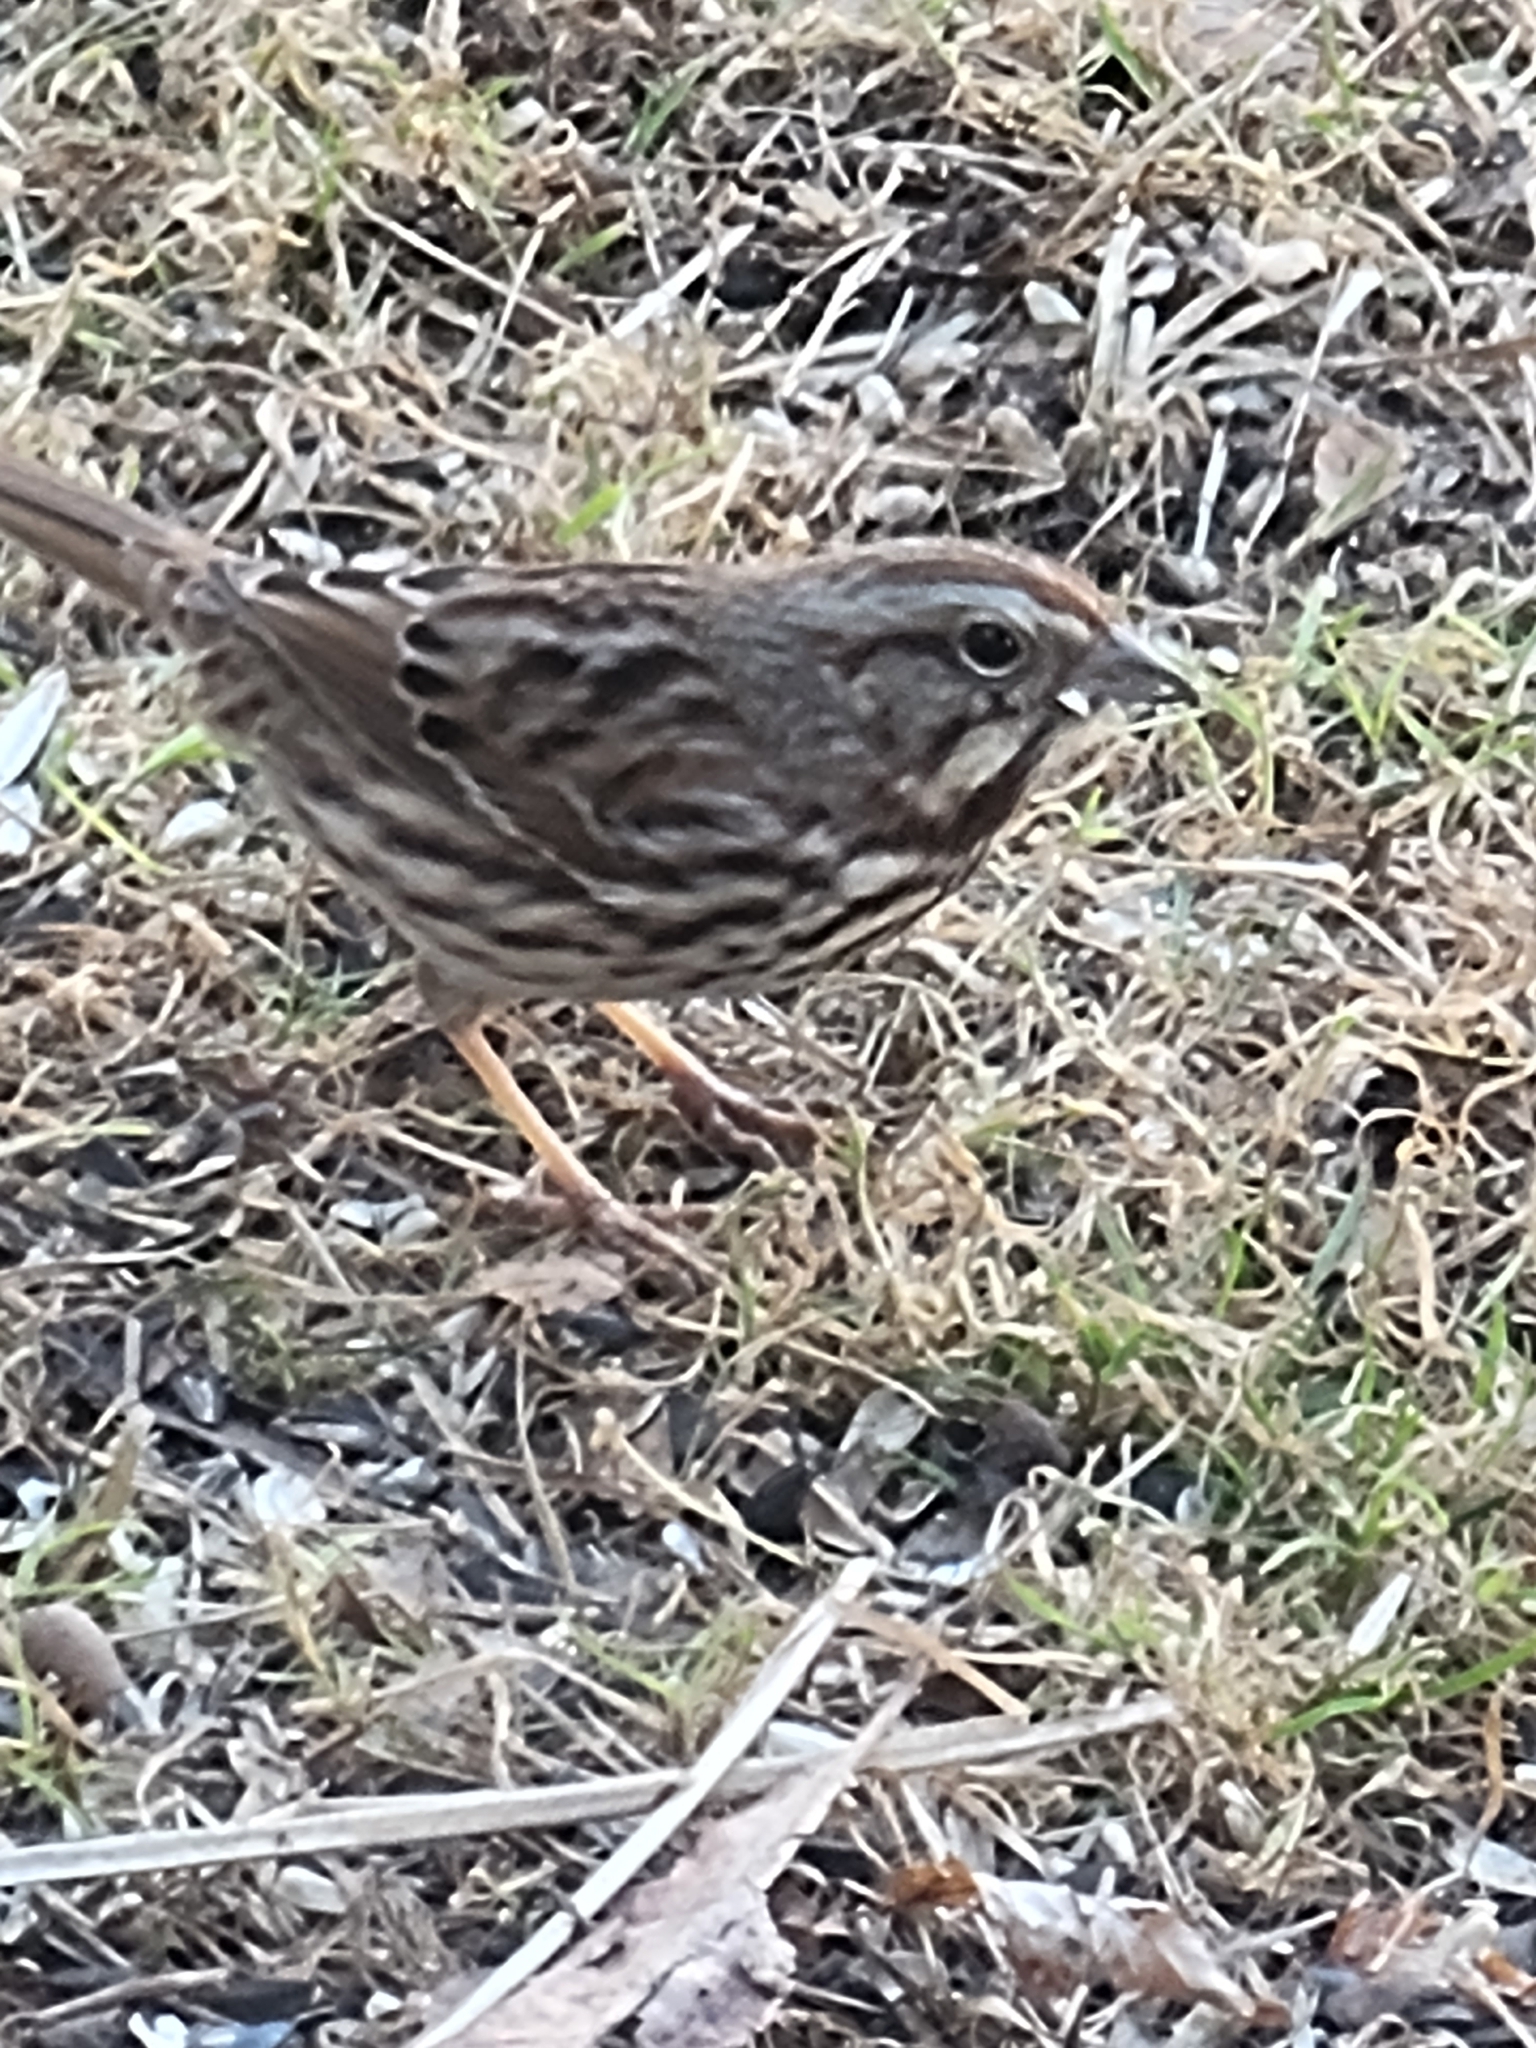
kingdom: Animalia
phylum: Chordata
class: Aves
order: Passeriformes
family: Passerellidae
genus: Melospiza
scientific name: Melospiza melodia
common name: Song sparrow
